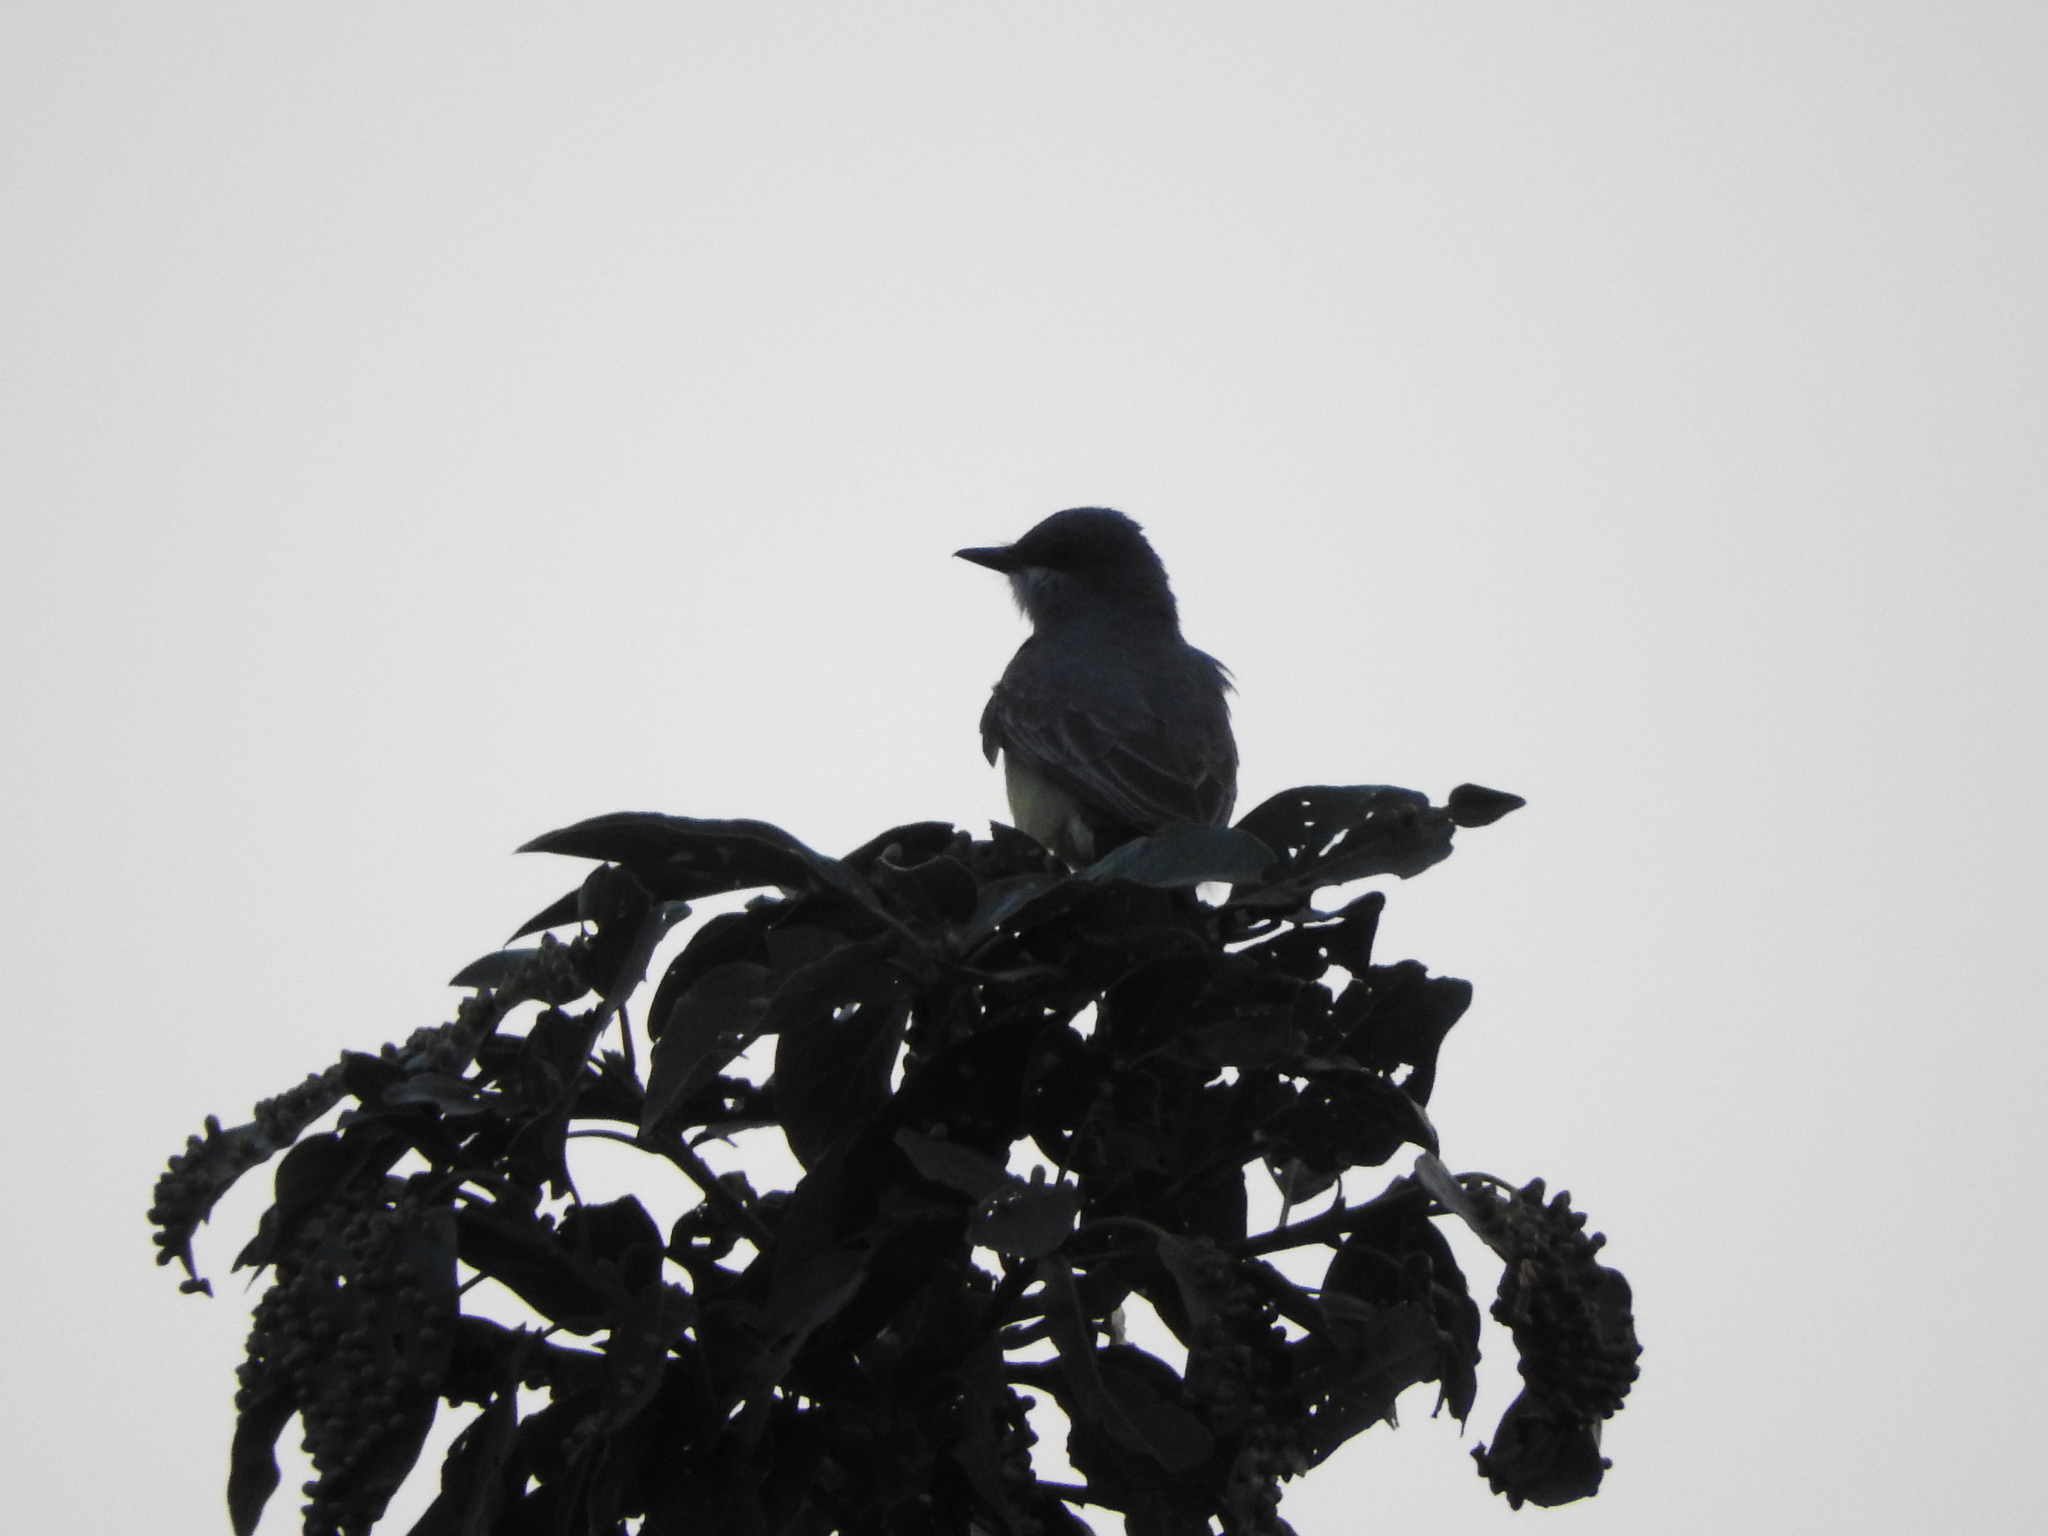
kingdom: Animalia
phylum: Chordata
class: Aves
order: Passeriformes
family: Tyrannidae
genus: Tyrannus
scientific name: Tyrannus vociferans
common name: Cassin's kingbird
